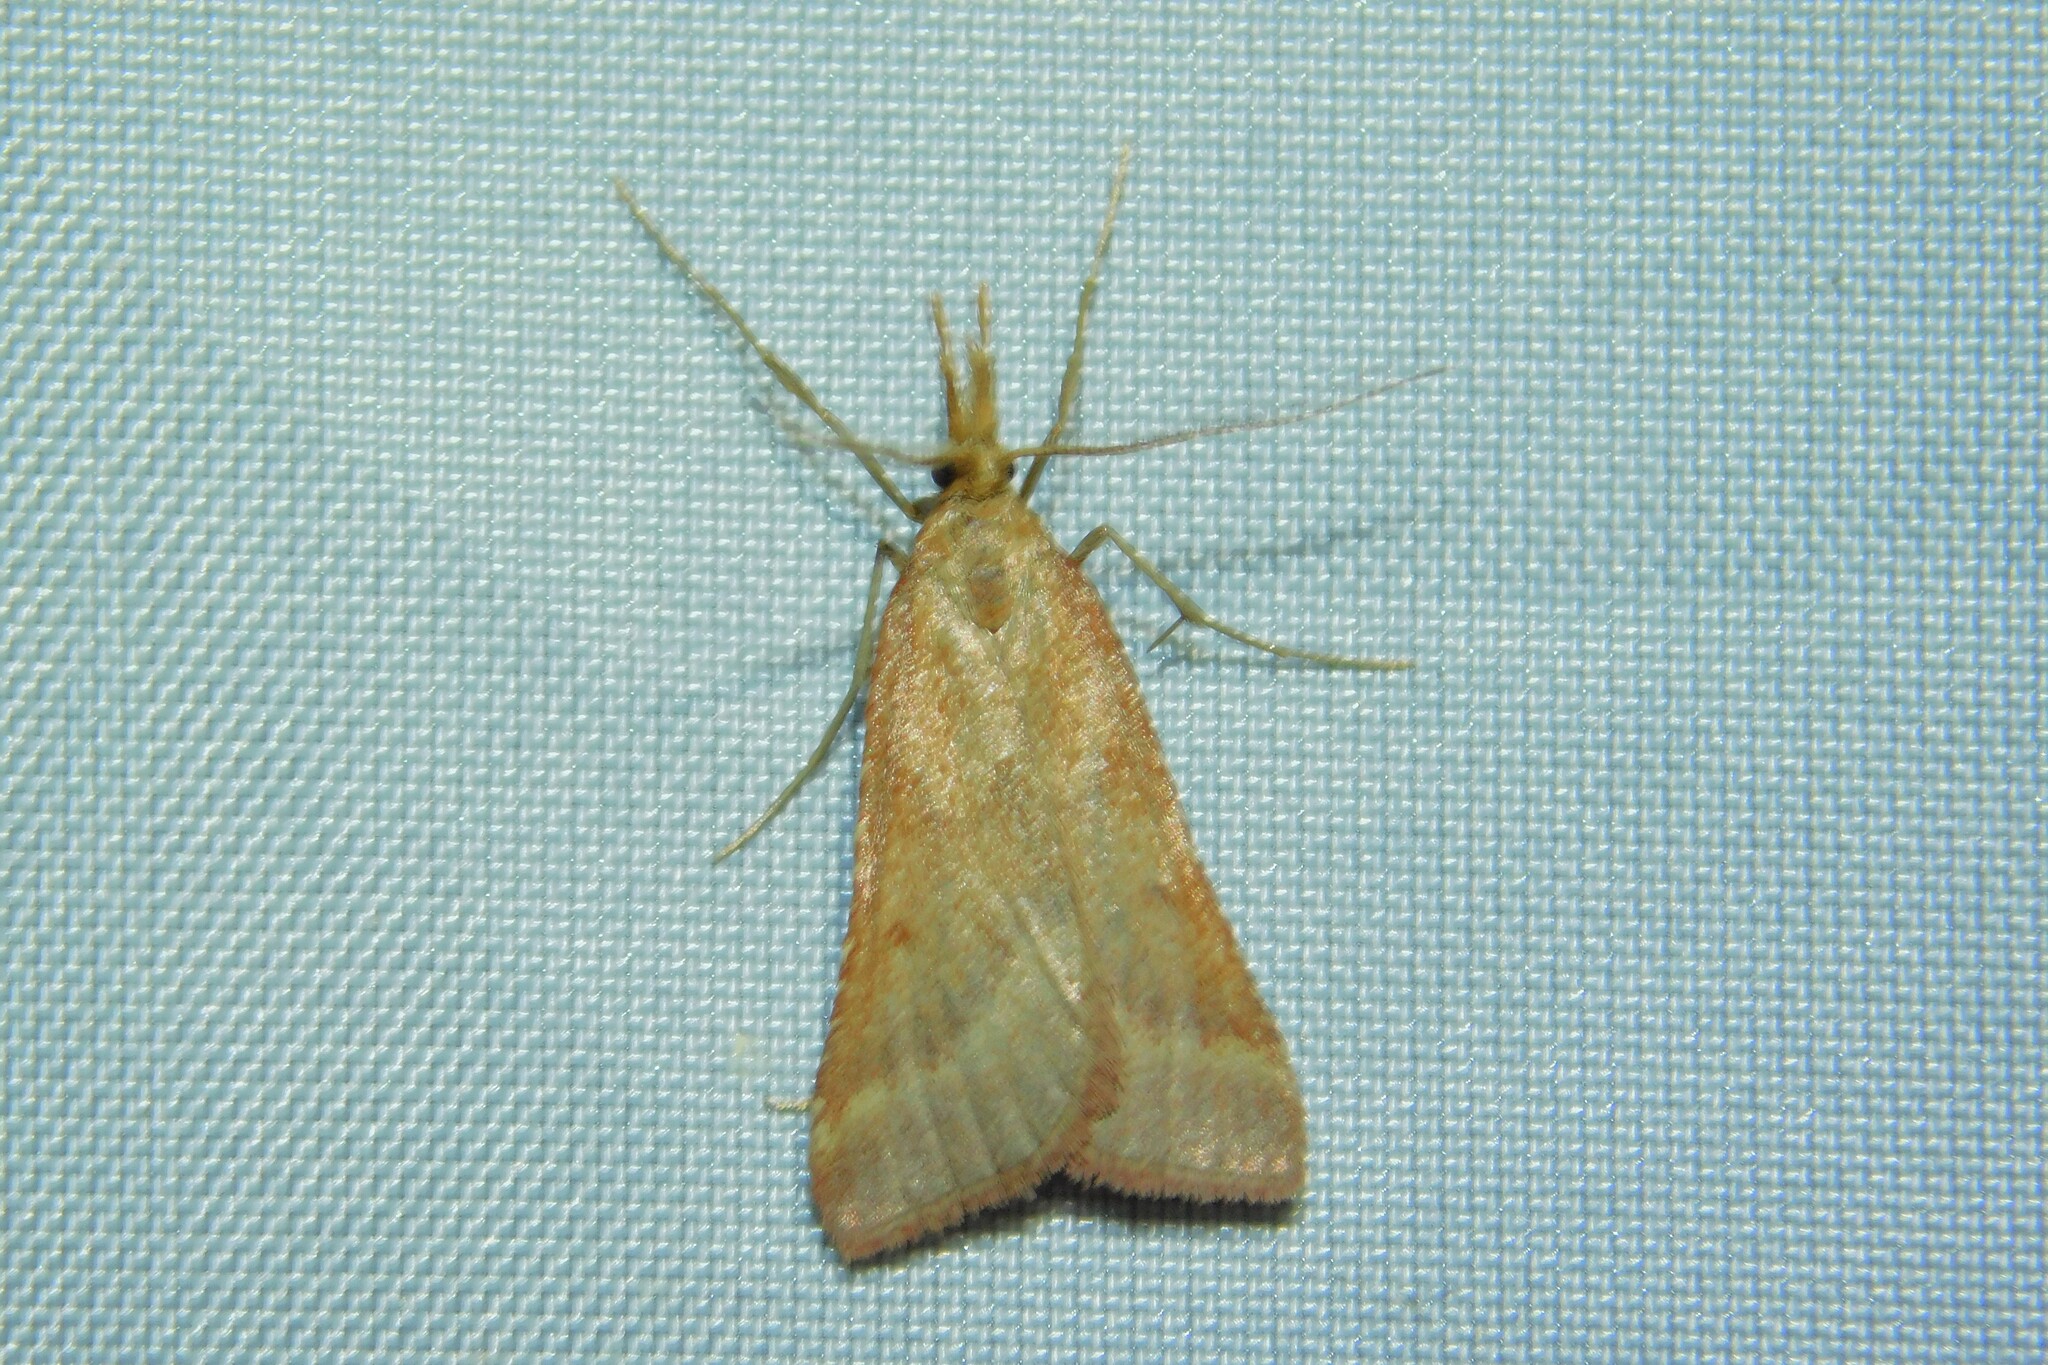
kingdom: Animalia
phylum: Arthropoda
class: Insecta
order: Lepidoptera
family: Pyralidae
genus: Synaphe
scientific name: Synaphe punctalis
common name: Long-legged tabby
